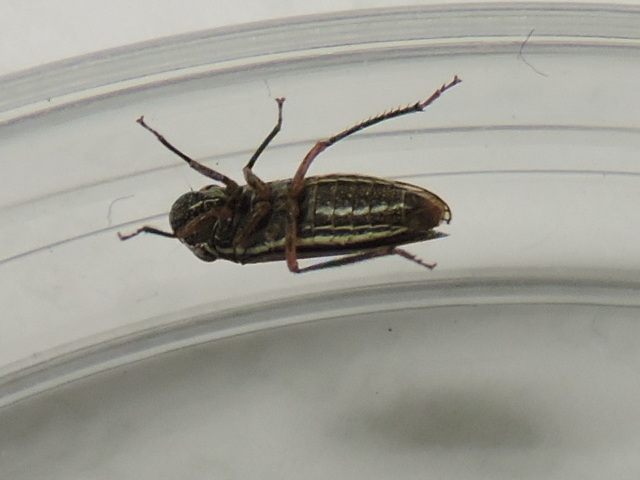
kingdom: Animalia
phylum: Arthropoda
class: Insecta
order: Hemiptera
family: Cicadellidae
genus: Cuerna
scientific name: Cuerna costalis
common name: Lateral-lined sharpshooter
